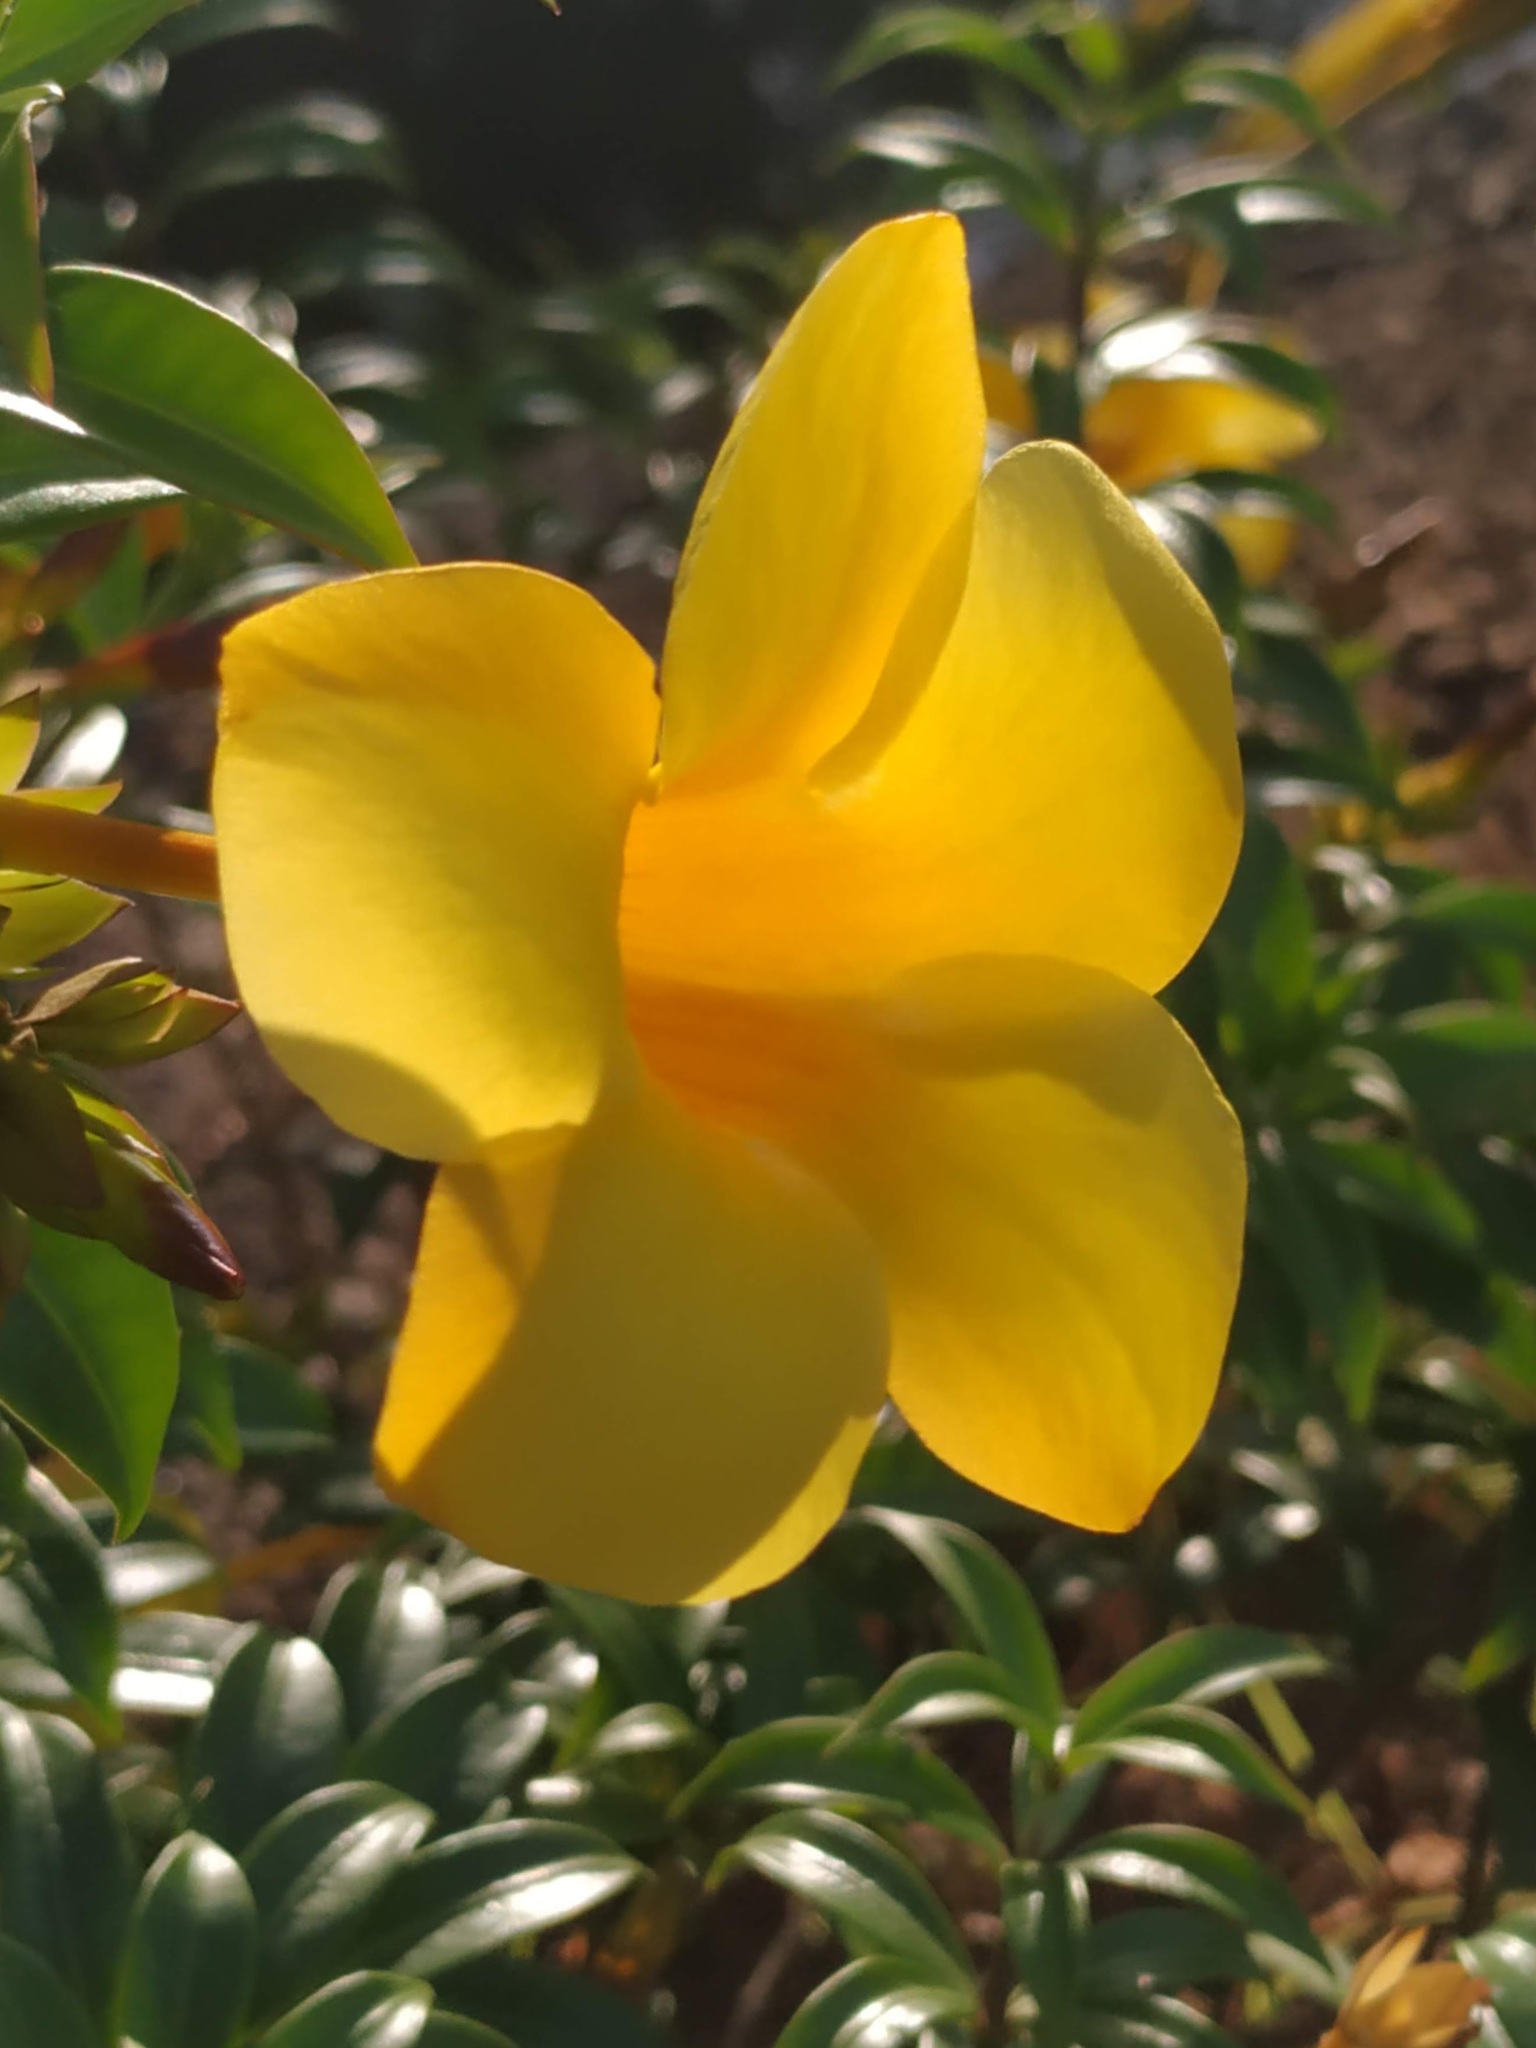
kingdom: Plantae
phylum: Tracheophyta
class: Magnoliopsida
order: Gentianales
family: Apocynaceae
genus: Allamanda
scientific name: Allamanda cathartica
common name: Golden trumpet
